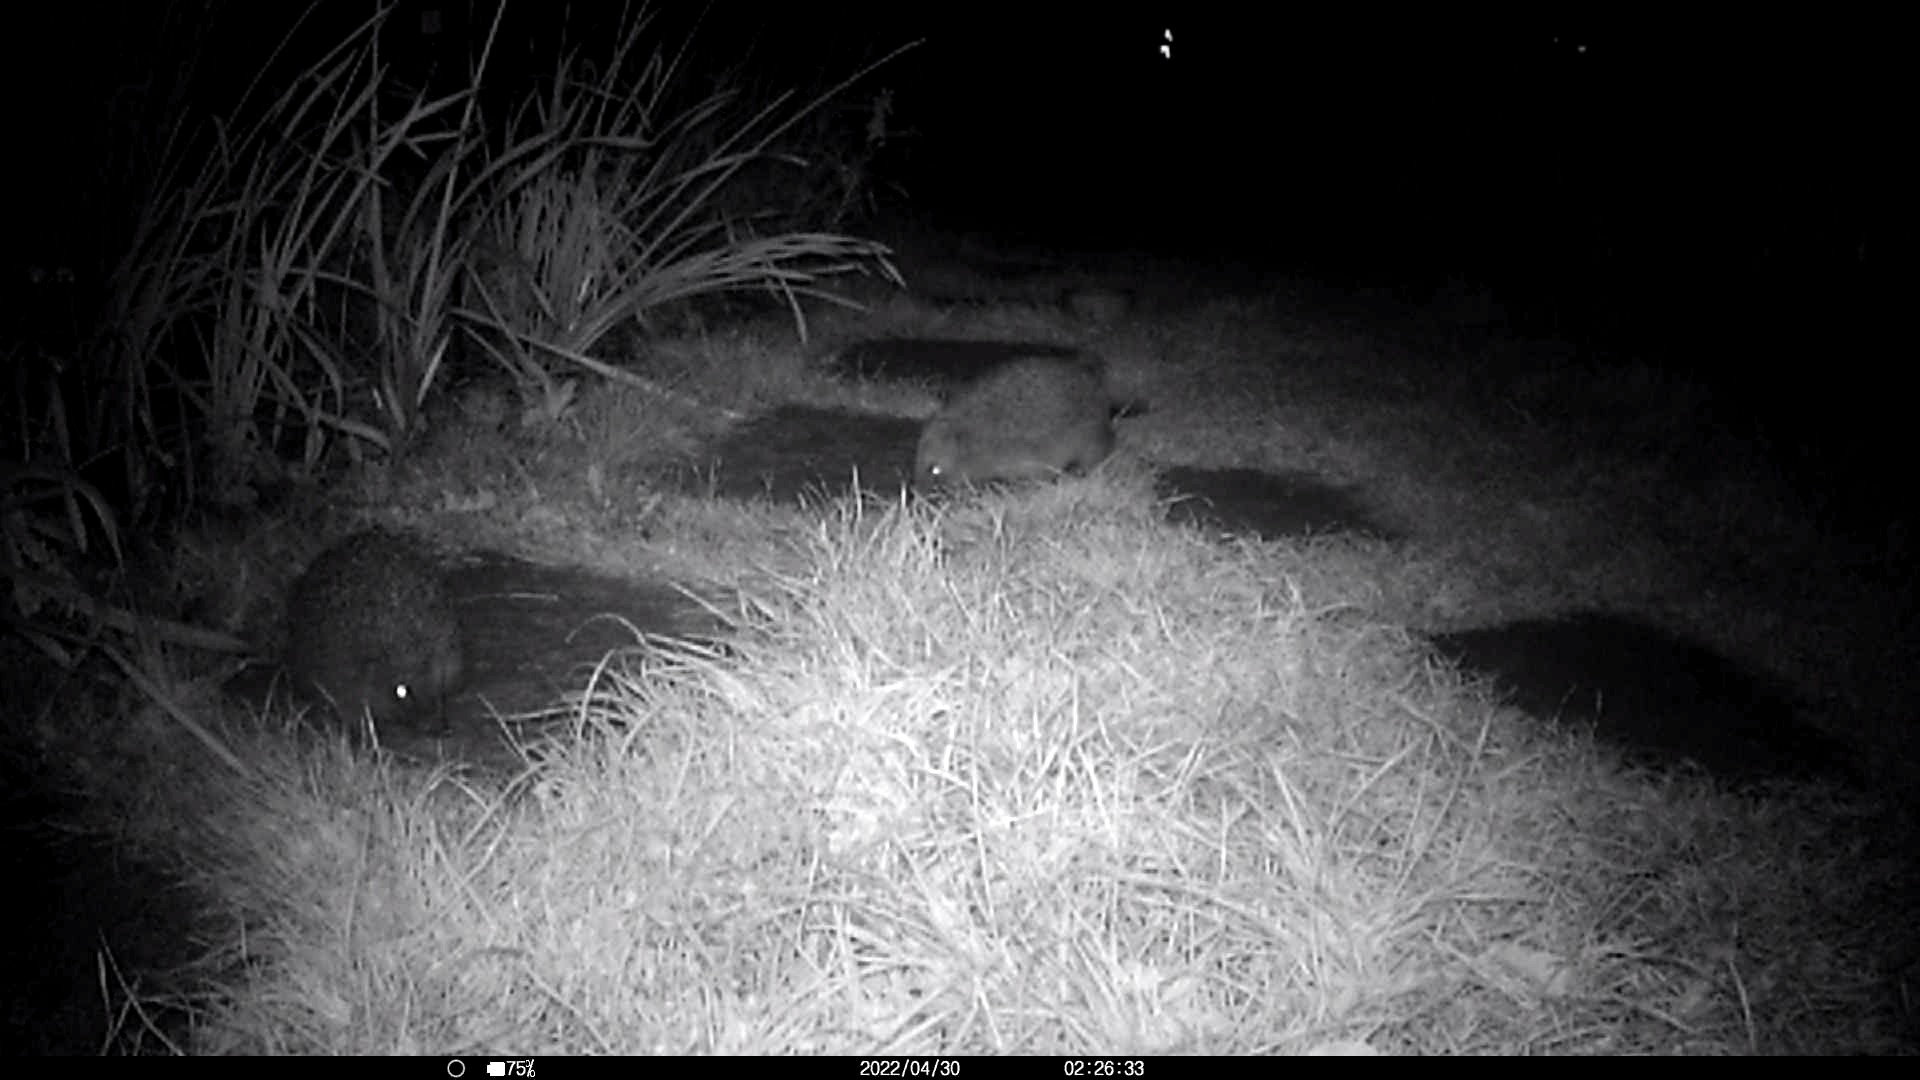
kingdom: Animalia
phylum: Chordata
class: Mammalia
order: Erinaceomorpha
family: Erinaceidae
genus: Erinaceus
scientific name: Erinaceus europaeus
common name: West european hedgehog
